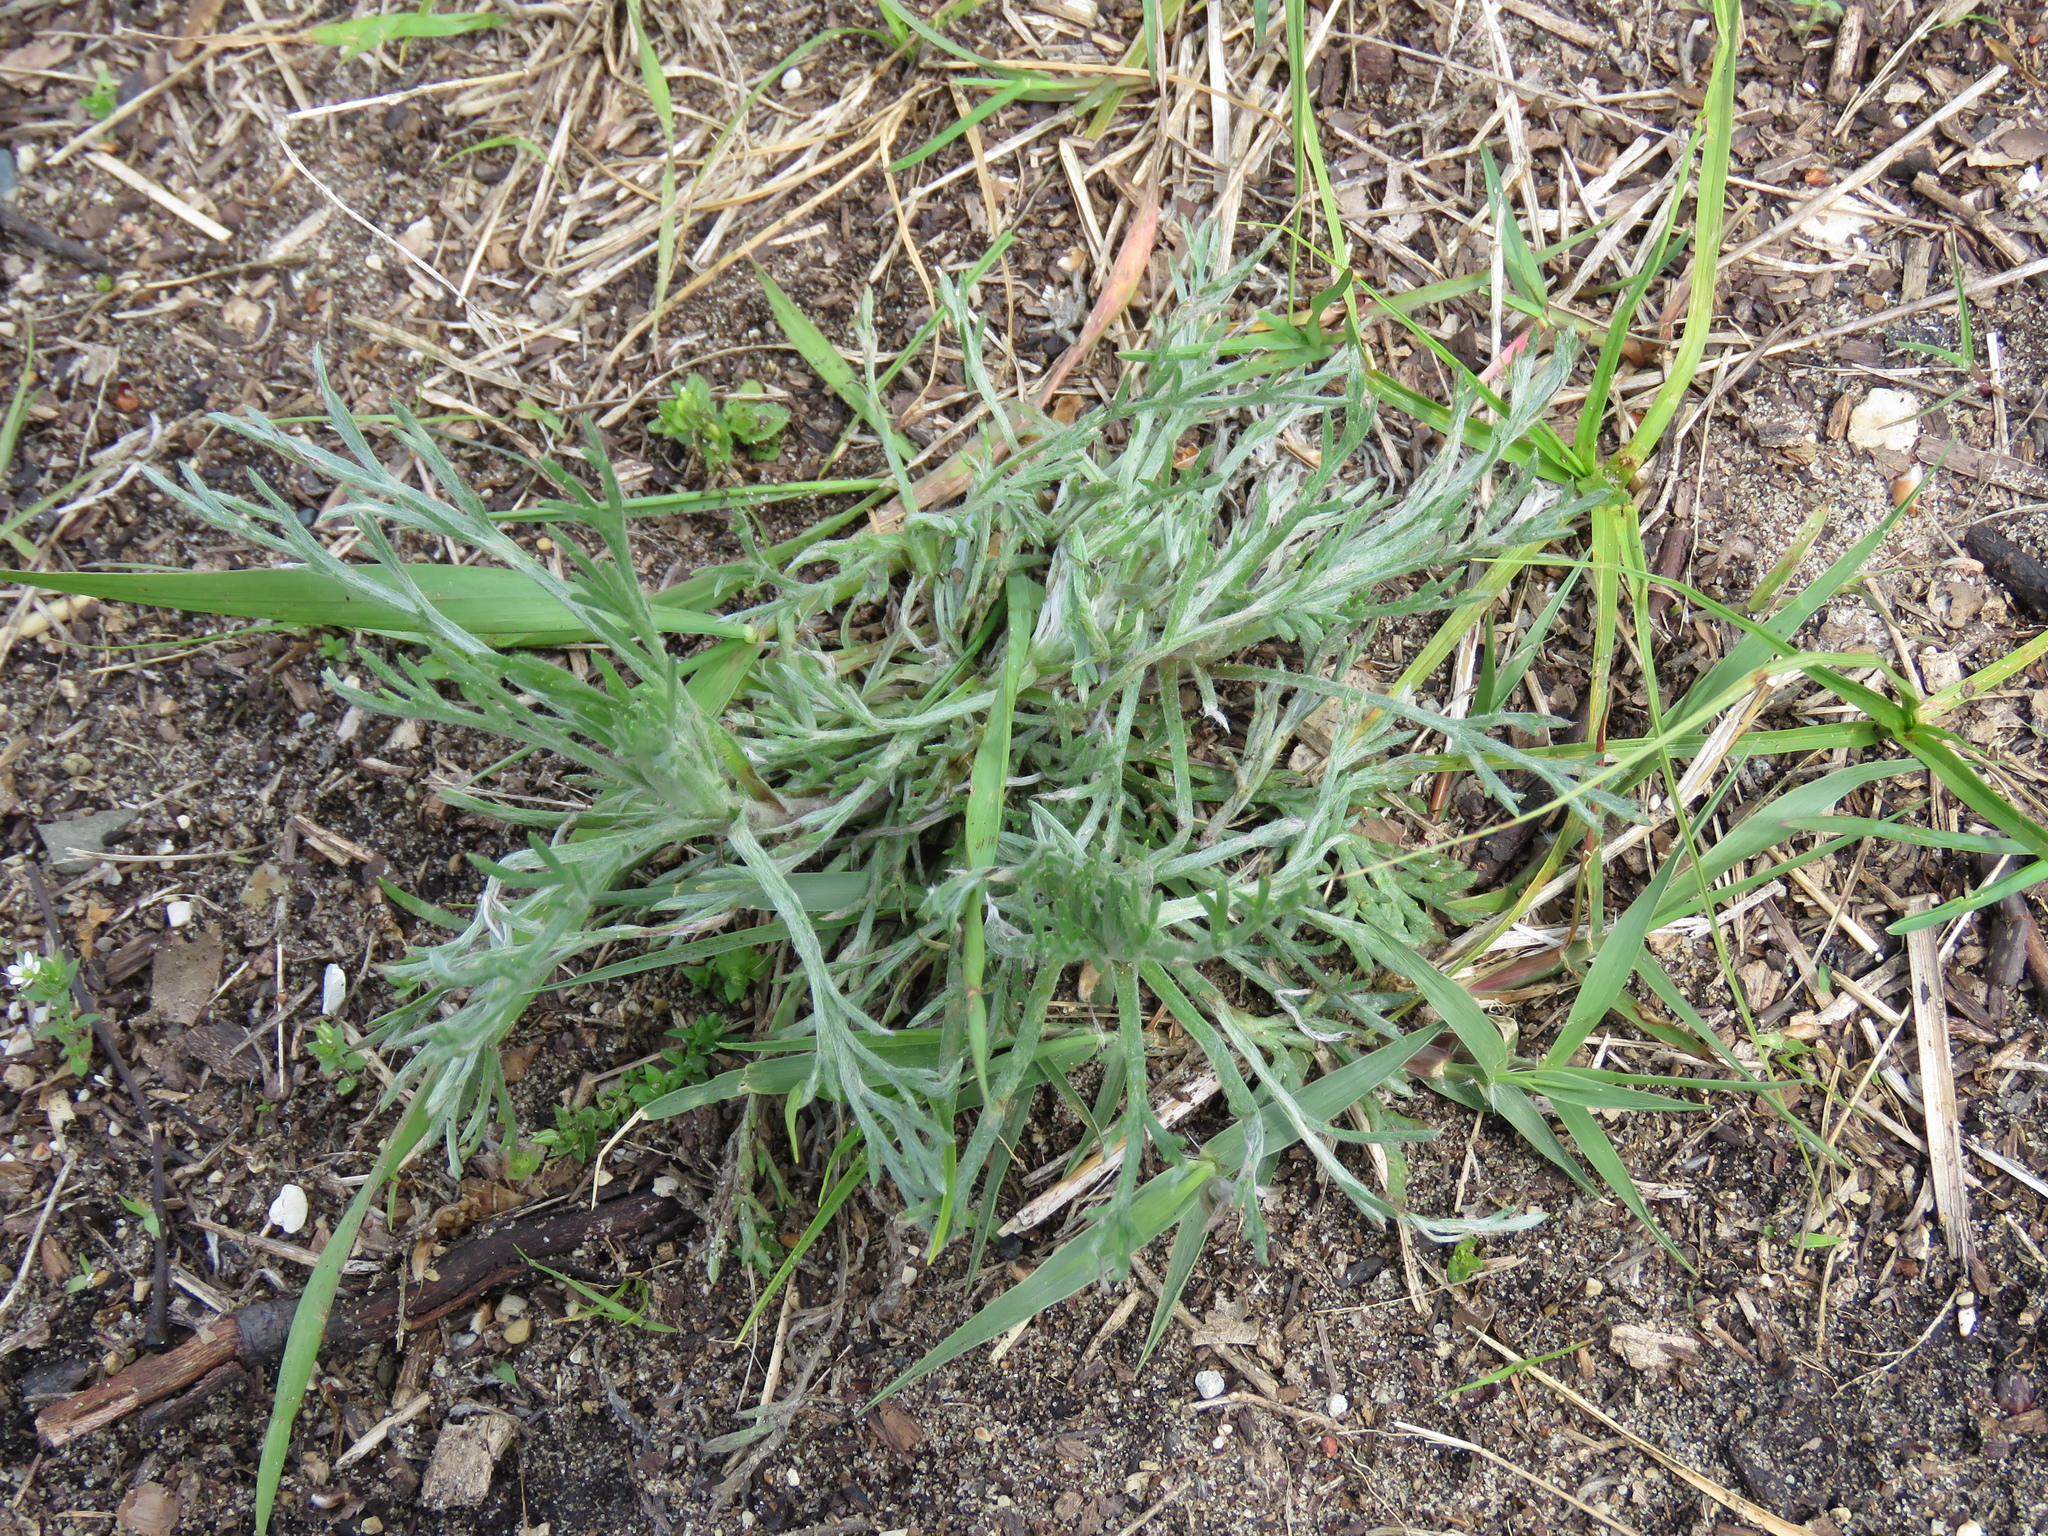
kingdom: Plantae
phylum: Tracheophyta
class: Magnoliopsida
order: Asterales
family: Asteraceae
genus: Artemisia
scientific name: Artemisia campestris
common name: Field wormwood
